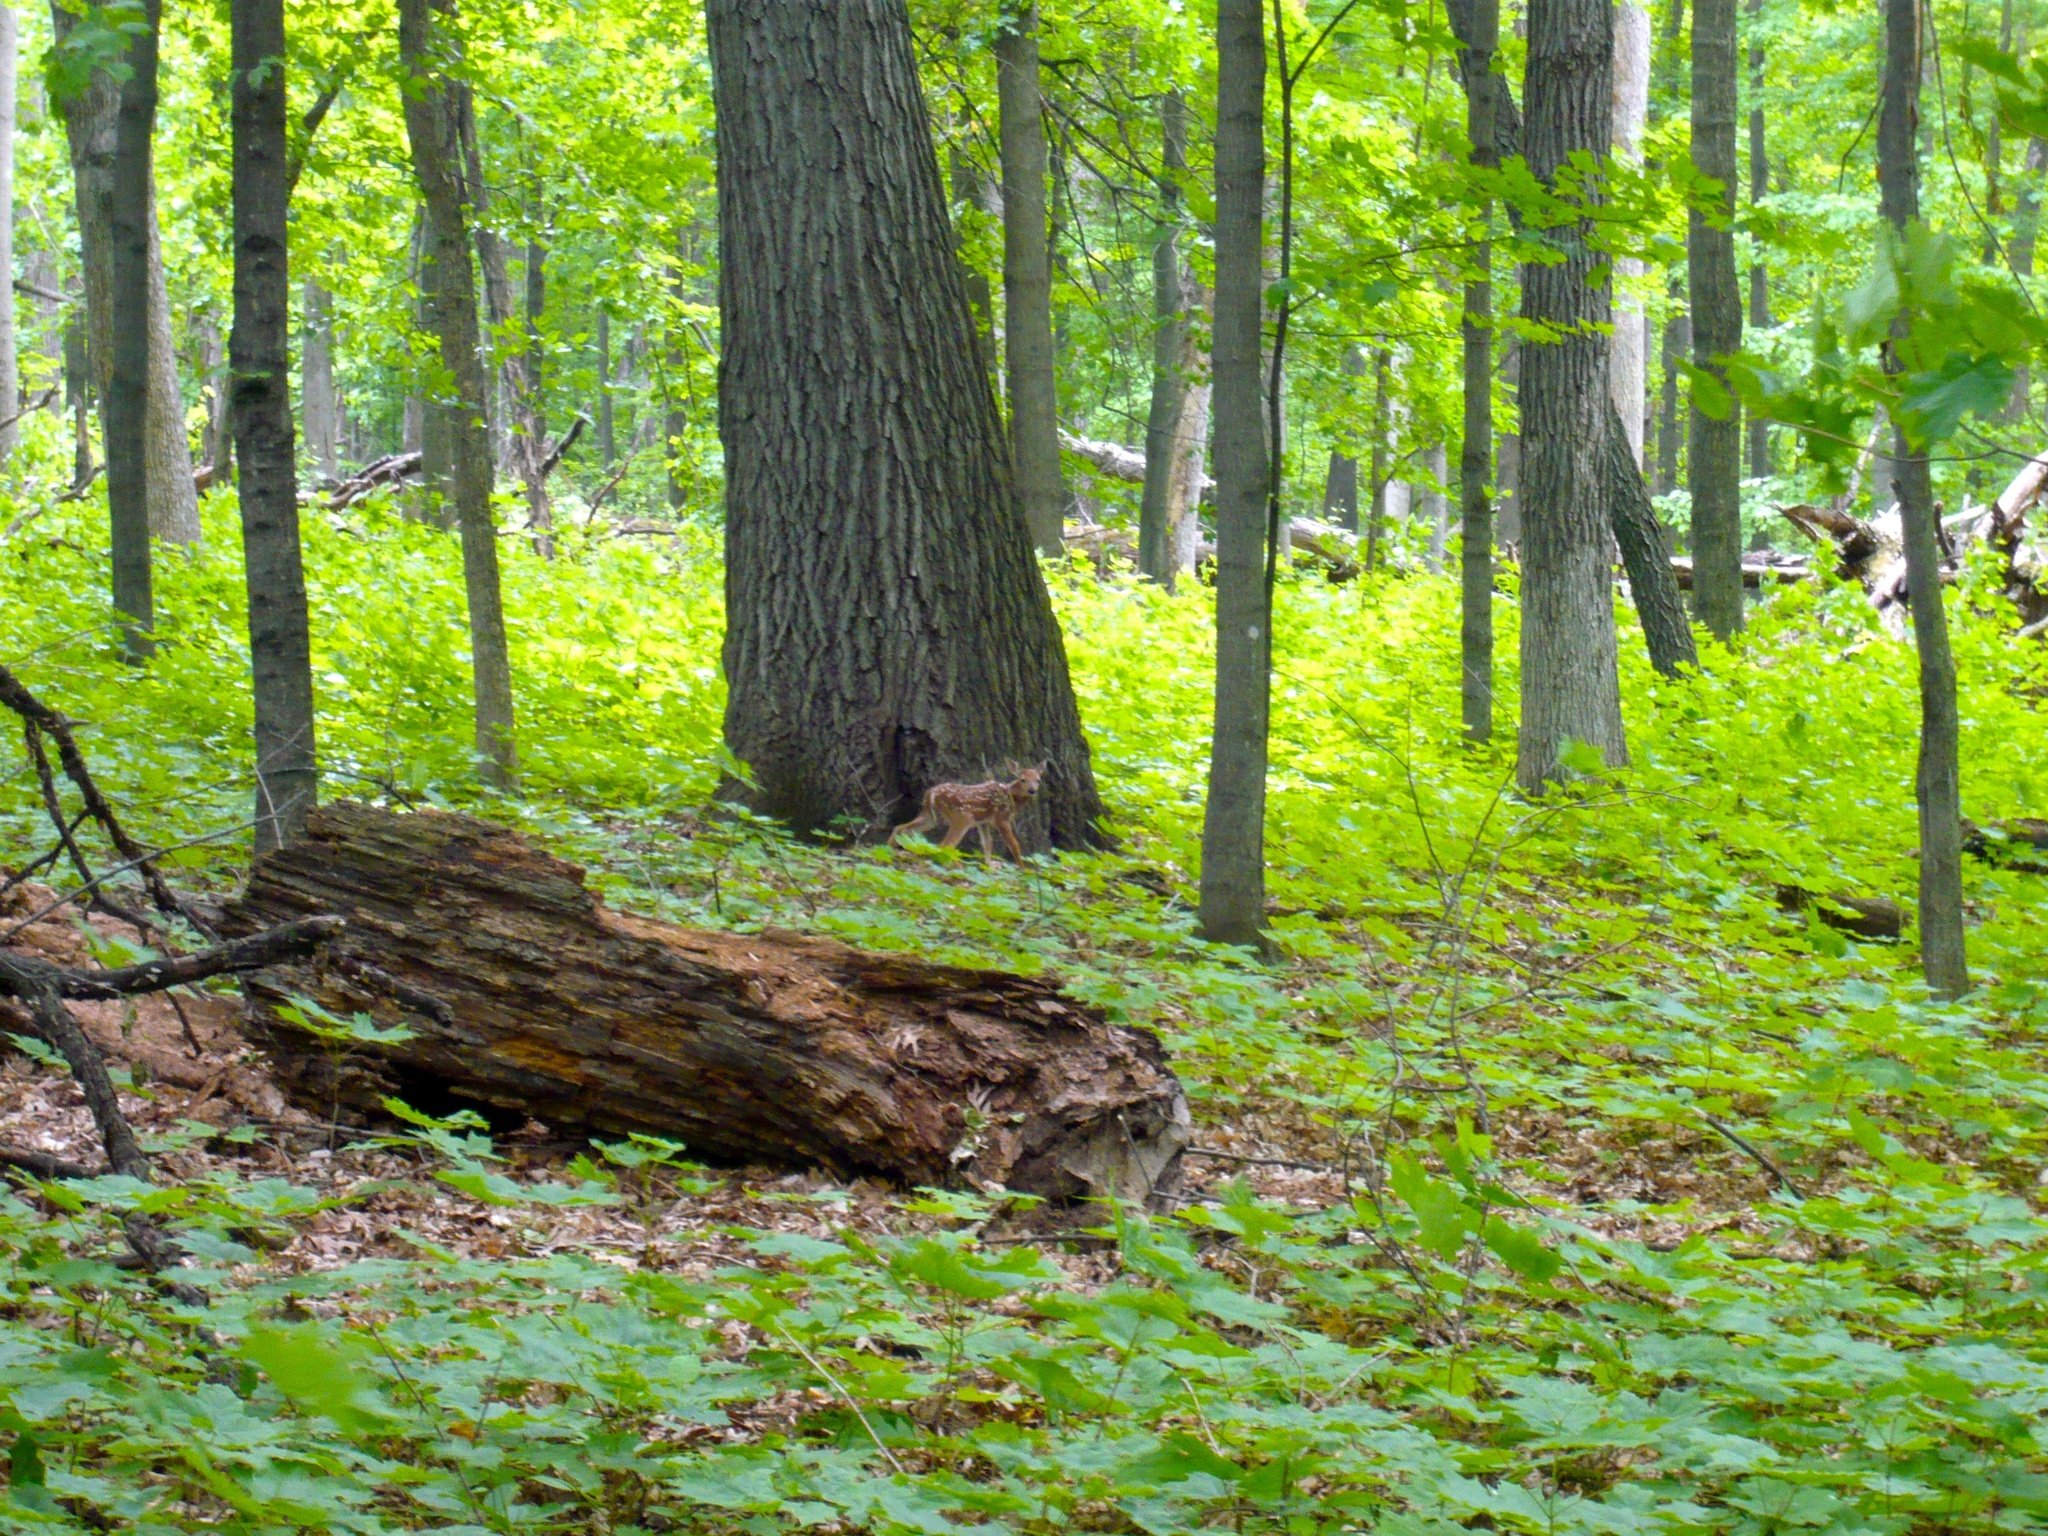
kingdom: Animalia
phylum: Chordata
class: Mammalia
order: Artiodactyla
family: Cervidae
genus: Odocoileus
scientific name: Odocoileus virginianus
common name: White-tailed deer
